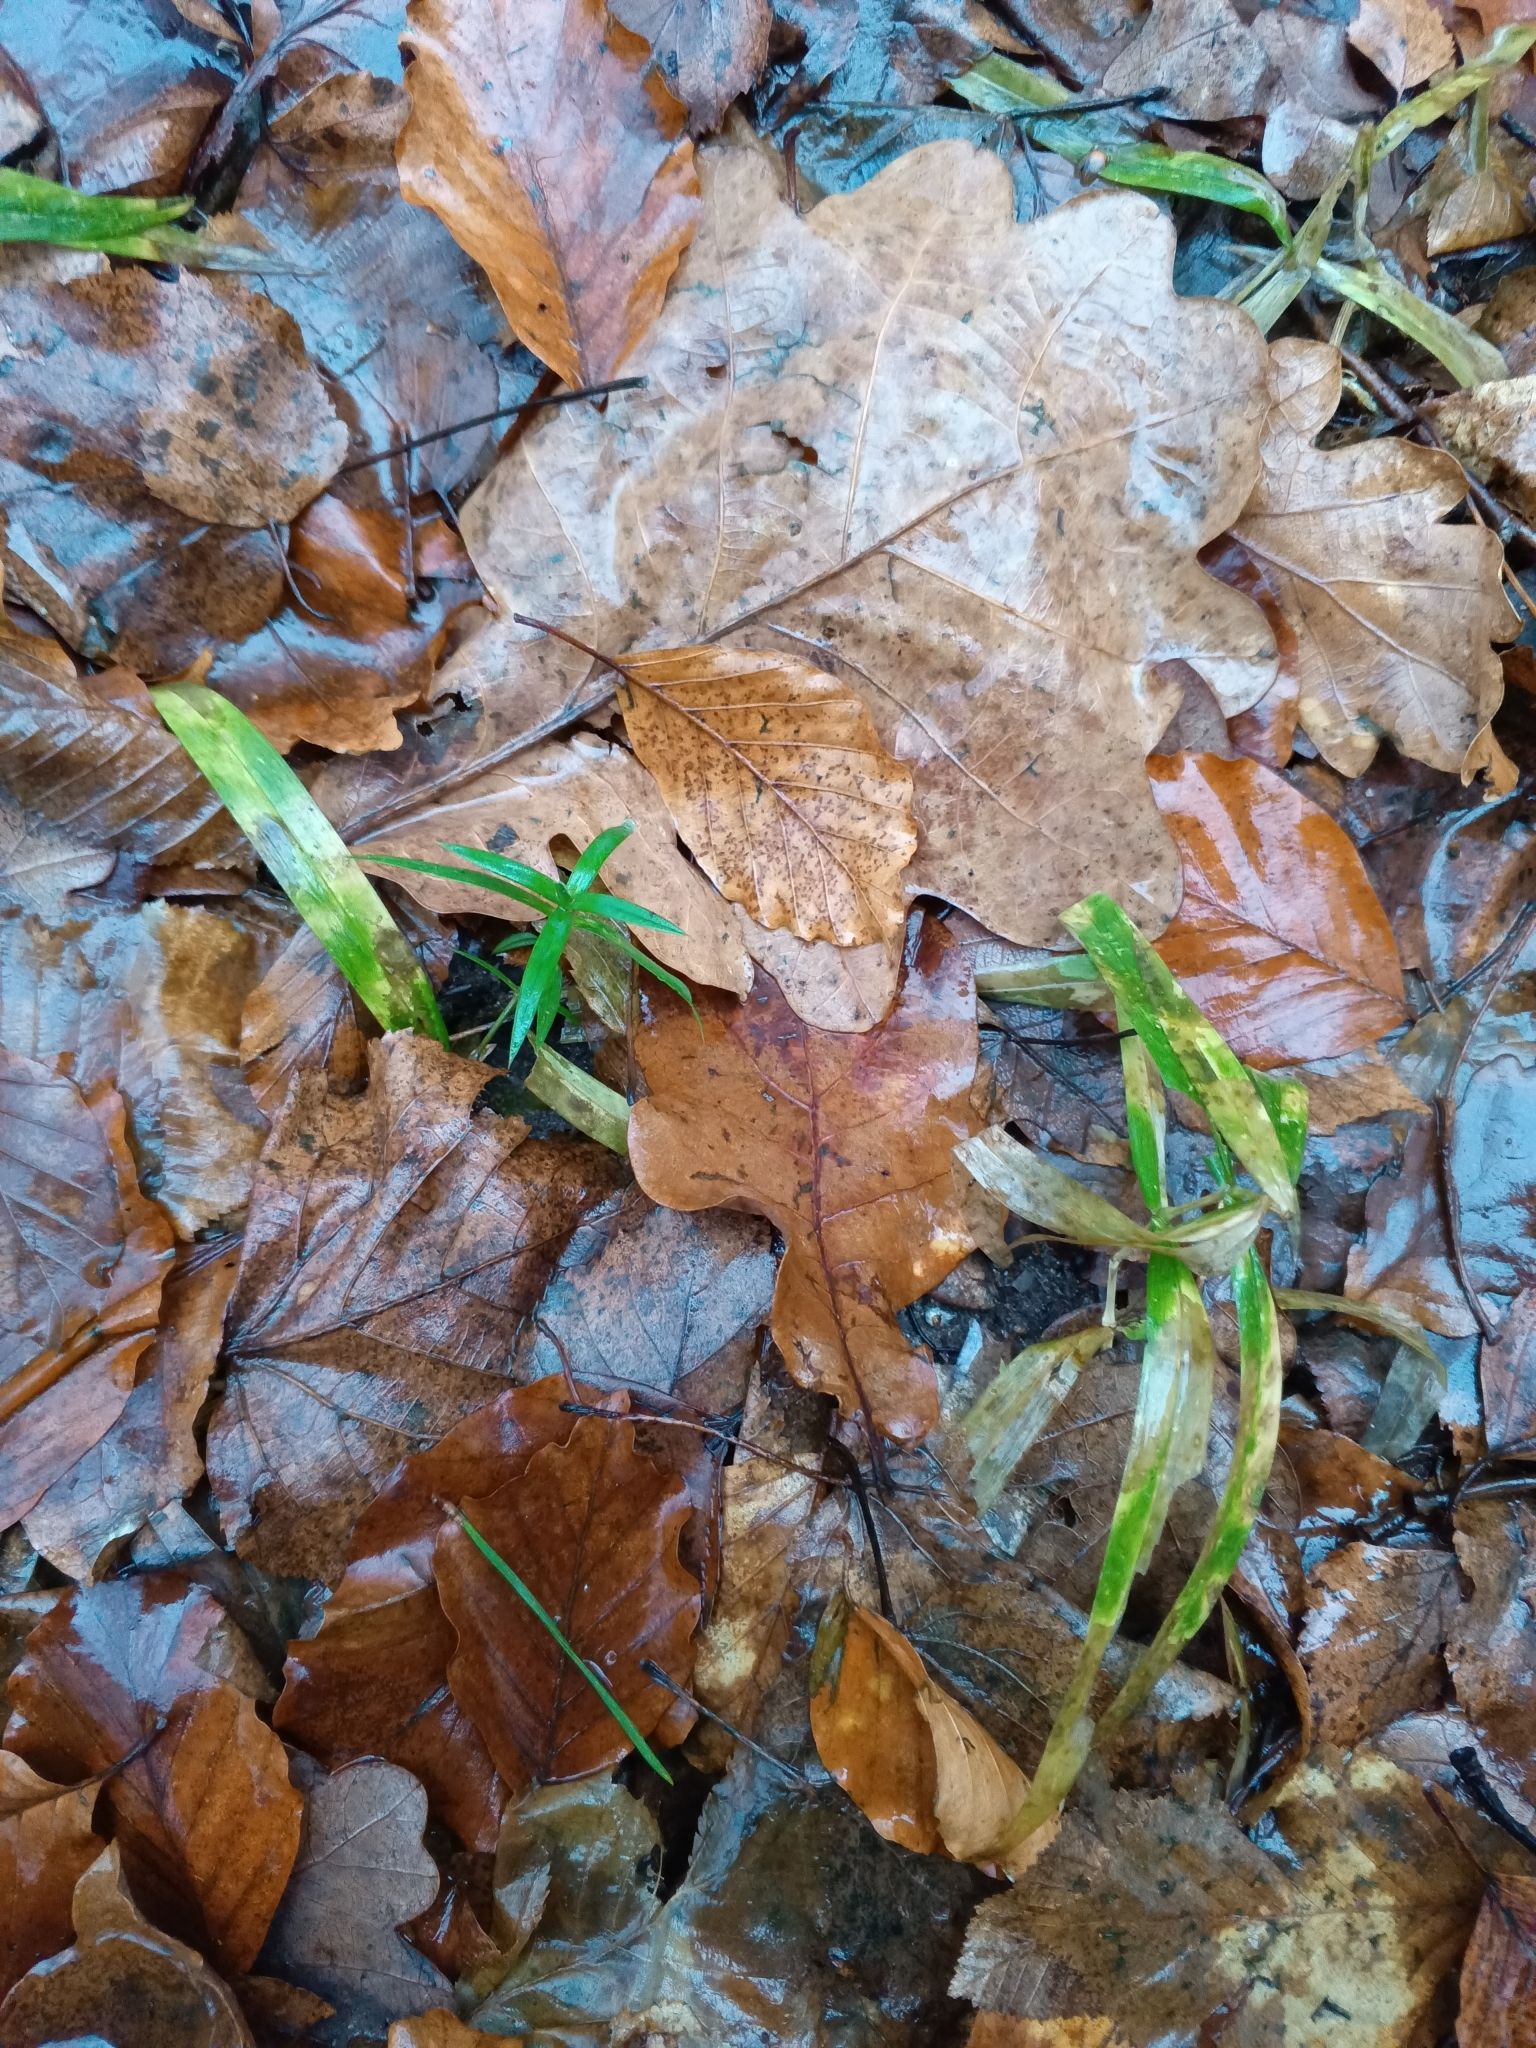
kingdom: Plantae
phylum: Tracheophyta
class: Magnoliopsida
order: Caryophyllales
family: Caryophyllaceae
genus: Rabelera
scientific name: Rabelera holostea
